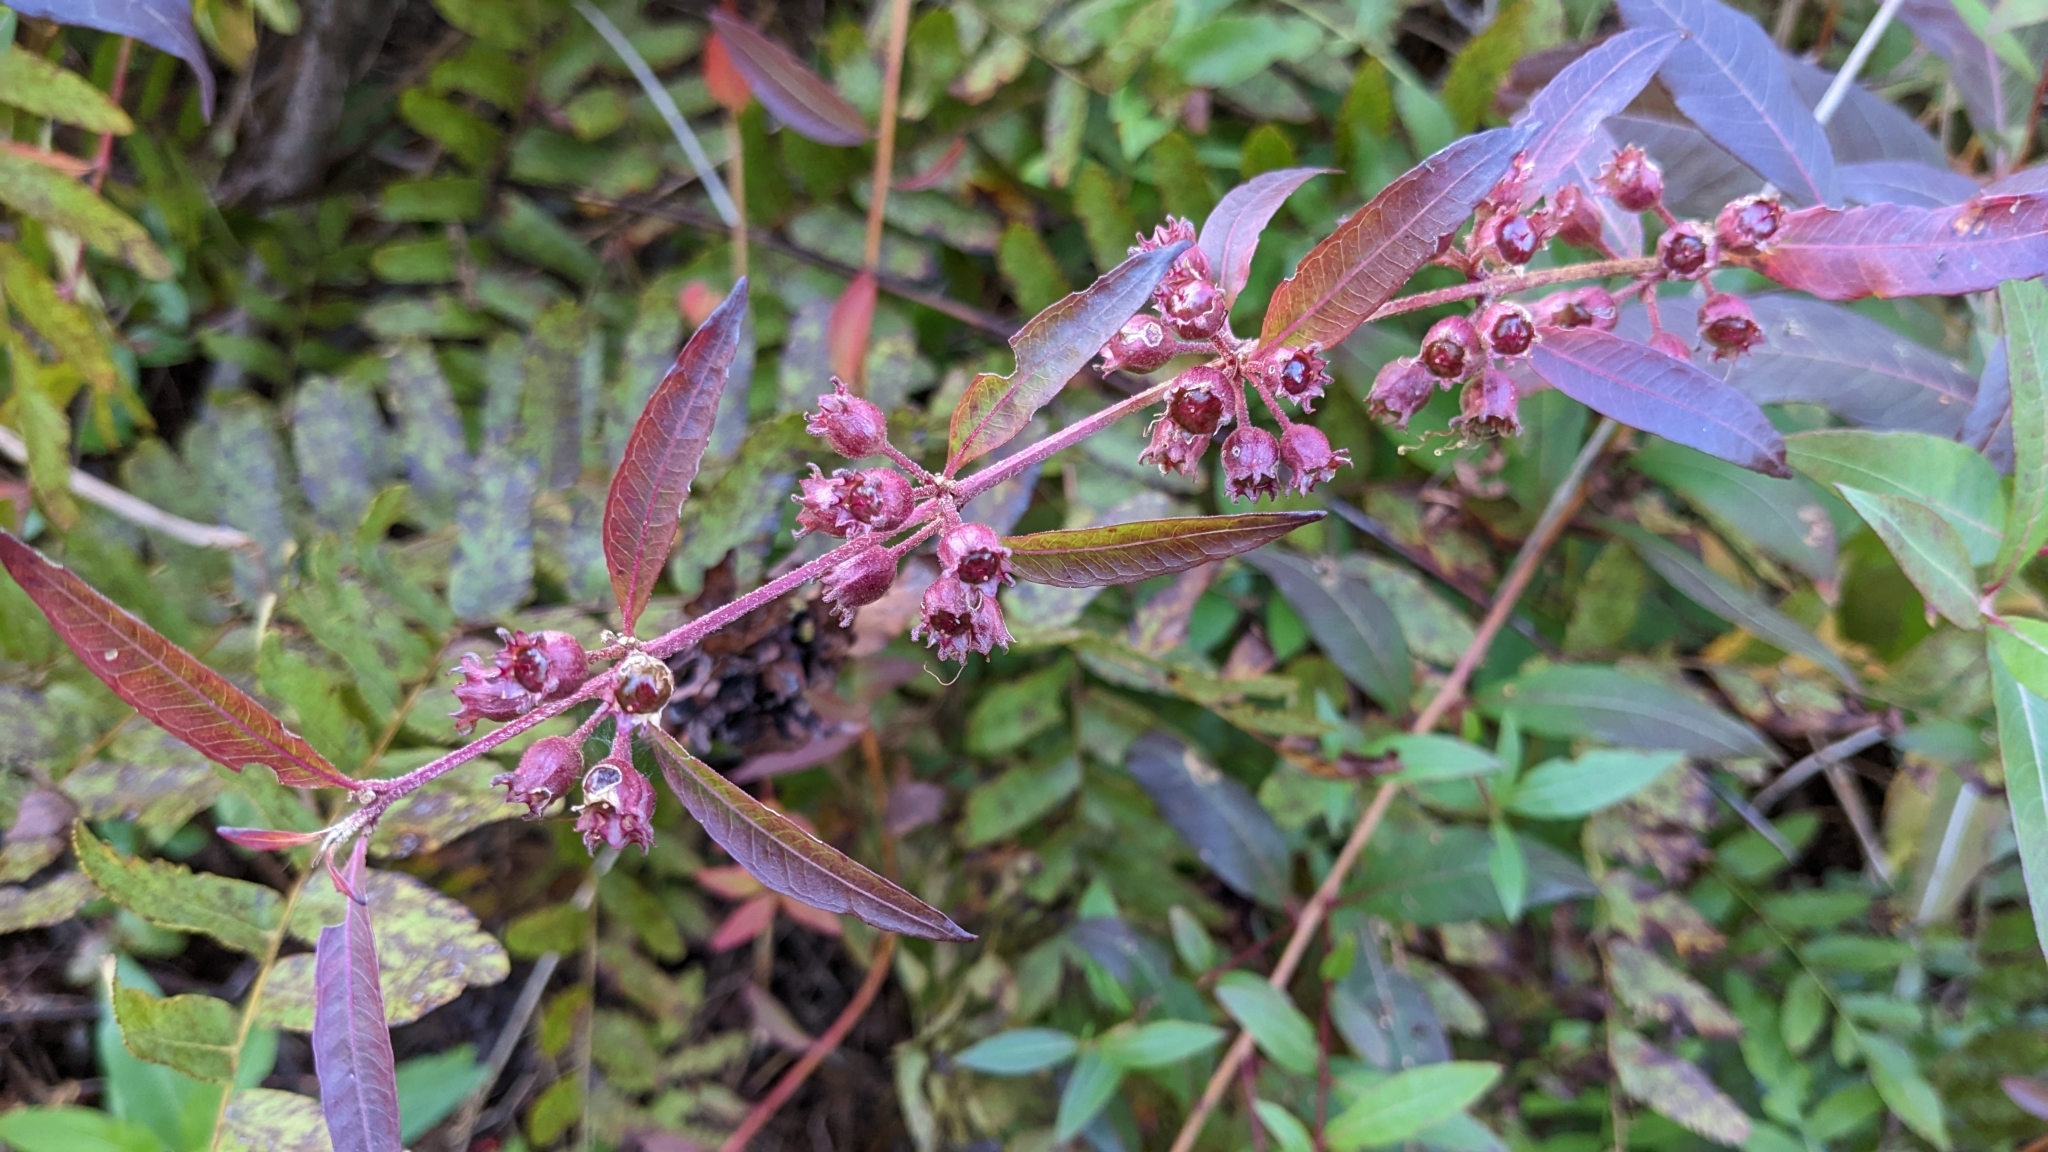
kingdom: Plantae
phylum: Tracheophyta
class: Magnoliopsida
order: Myrtales
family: Lythraceae
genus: Decodon
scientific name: Decodon verticillatus
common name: Hairy swamp loosestrife
